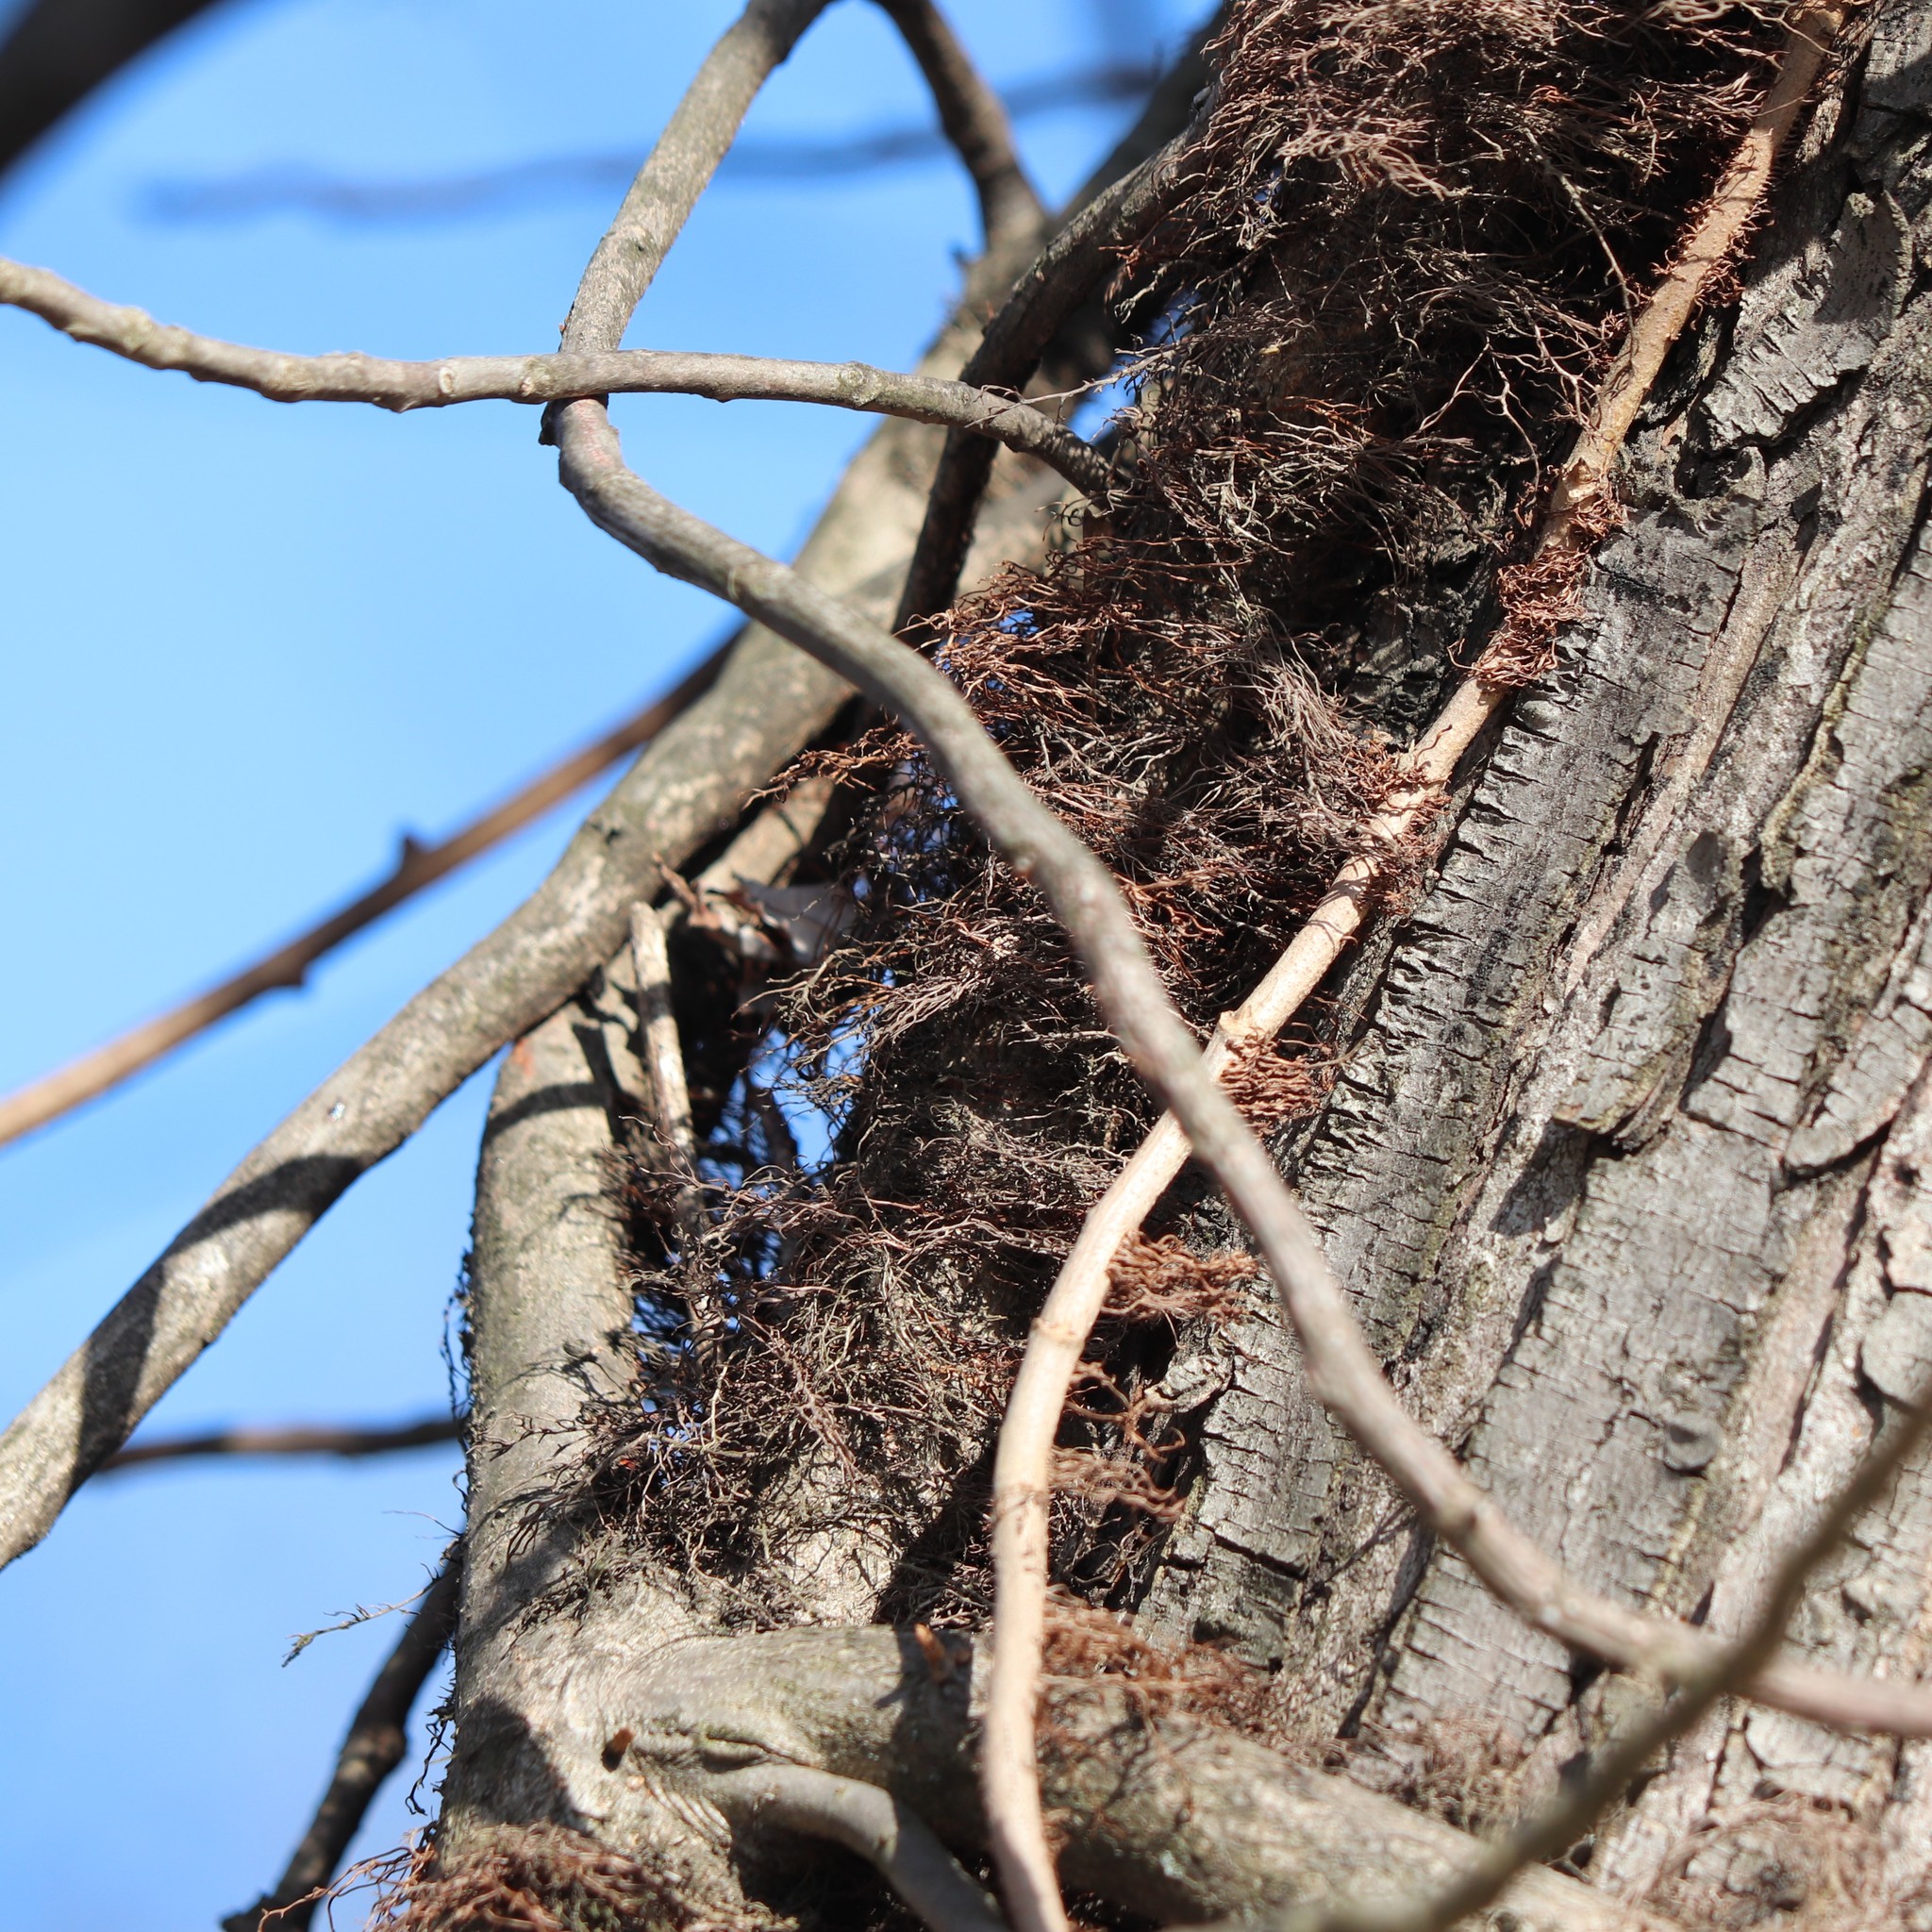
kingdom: Plantae
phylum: Tracheophyta
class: Magnoliopsida
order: Sapindales
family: Anacardiaceae
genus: Toxicodendron
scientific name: Toxicodendron radicans
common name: Poison ivy
